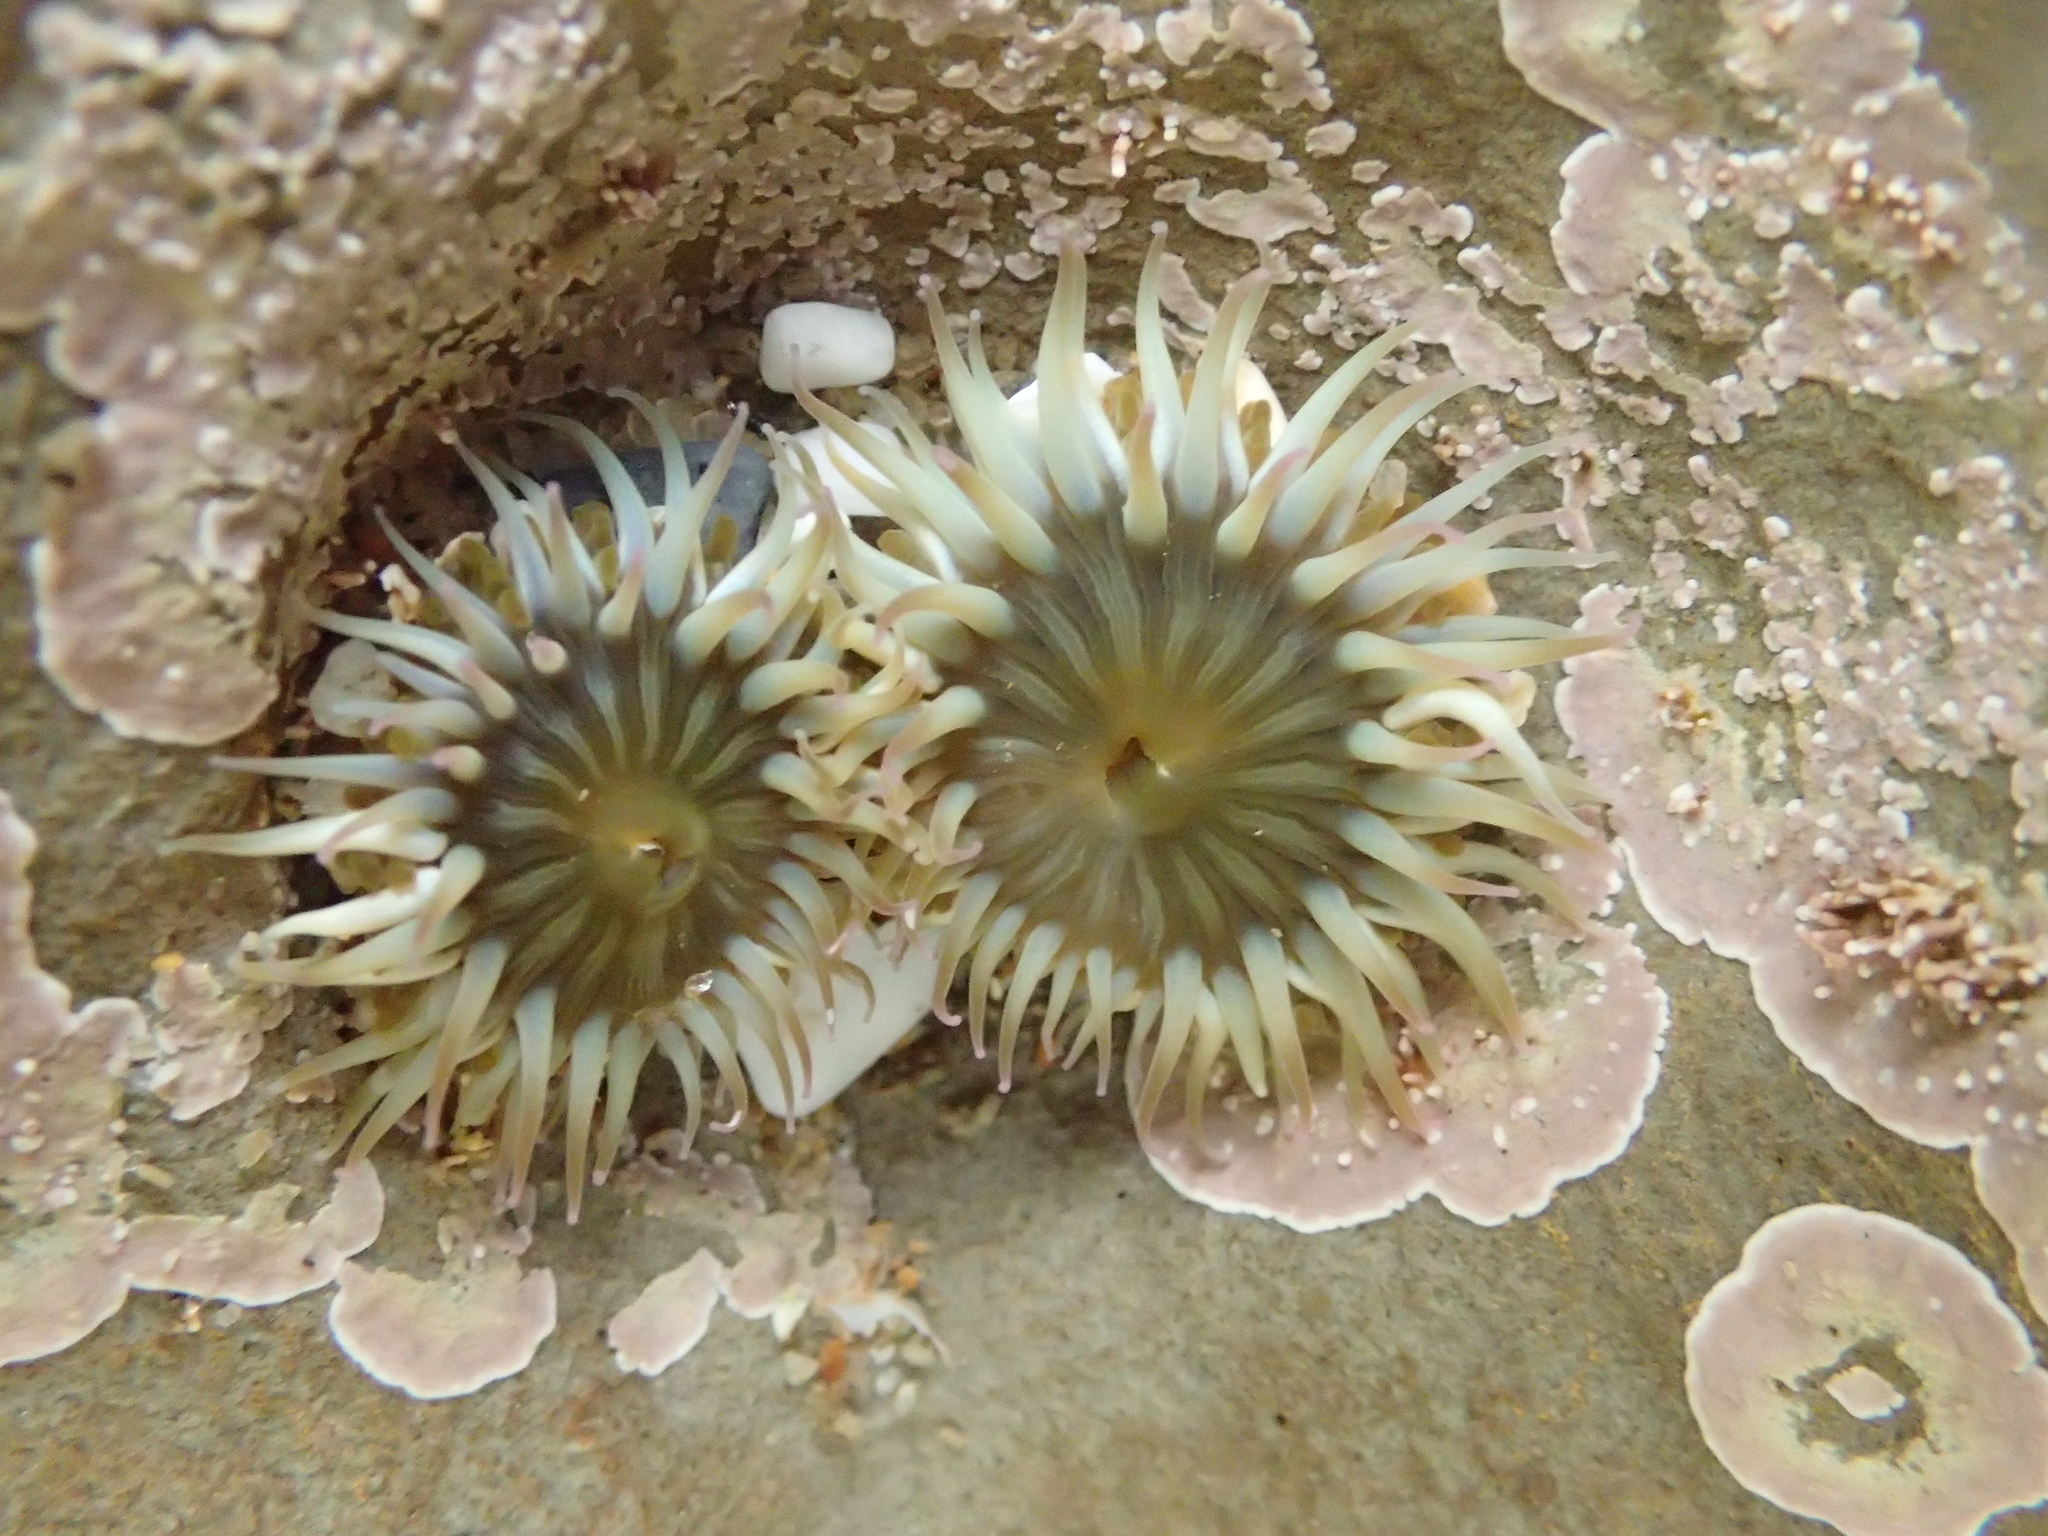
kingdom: Animalia
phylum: Cnidaria
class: Anthozoa
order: Actiniaria
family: Actiniidae
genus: Anthopleura
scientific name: Anthopleura elegantissima
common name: Clonal anemone
